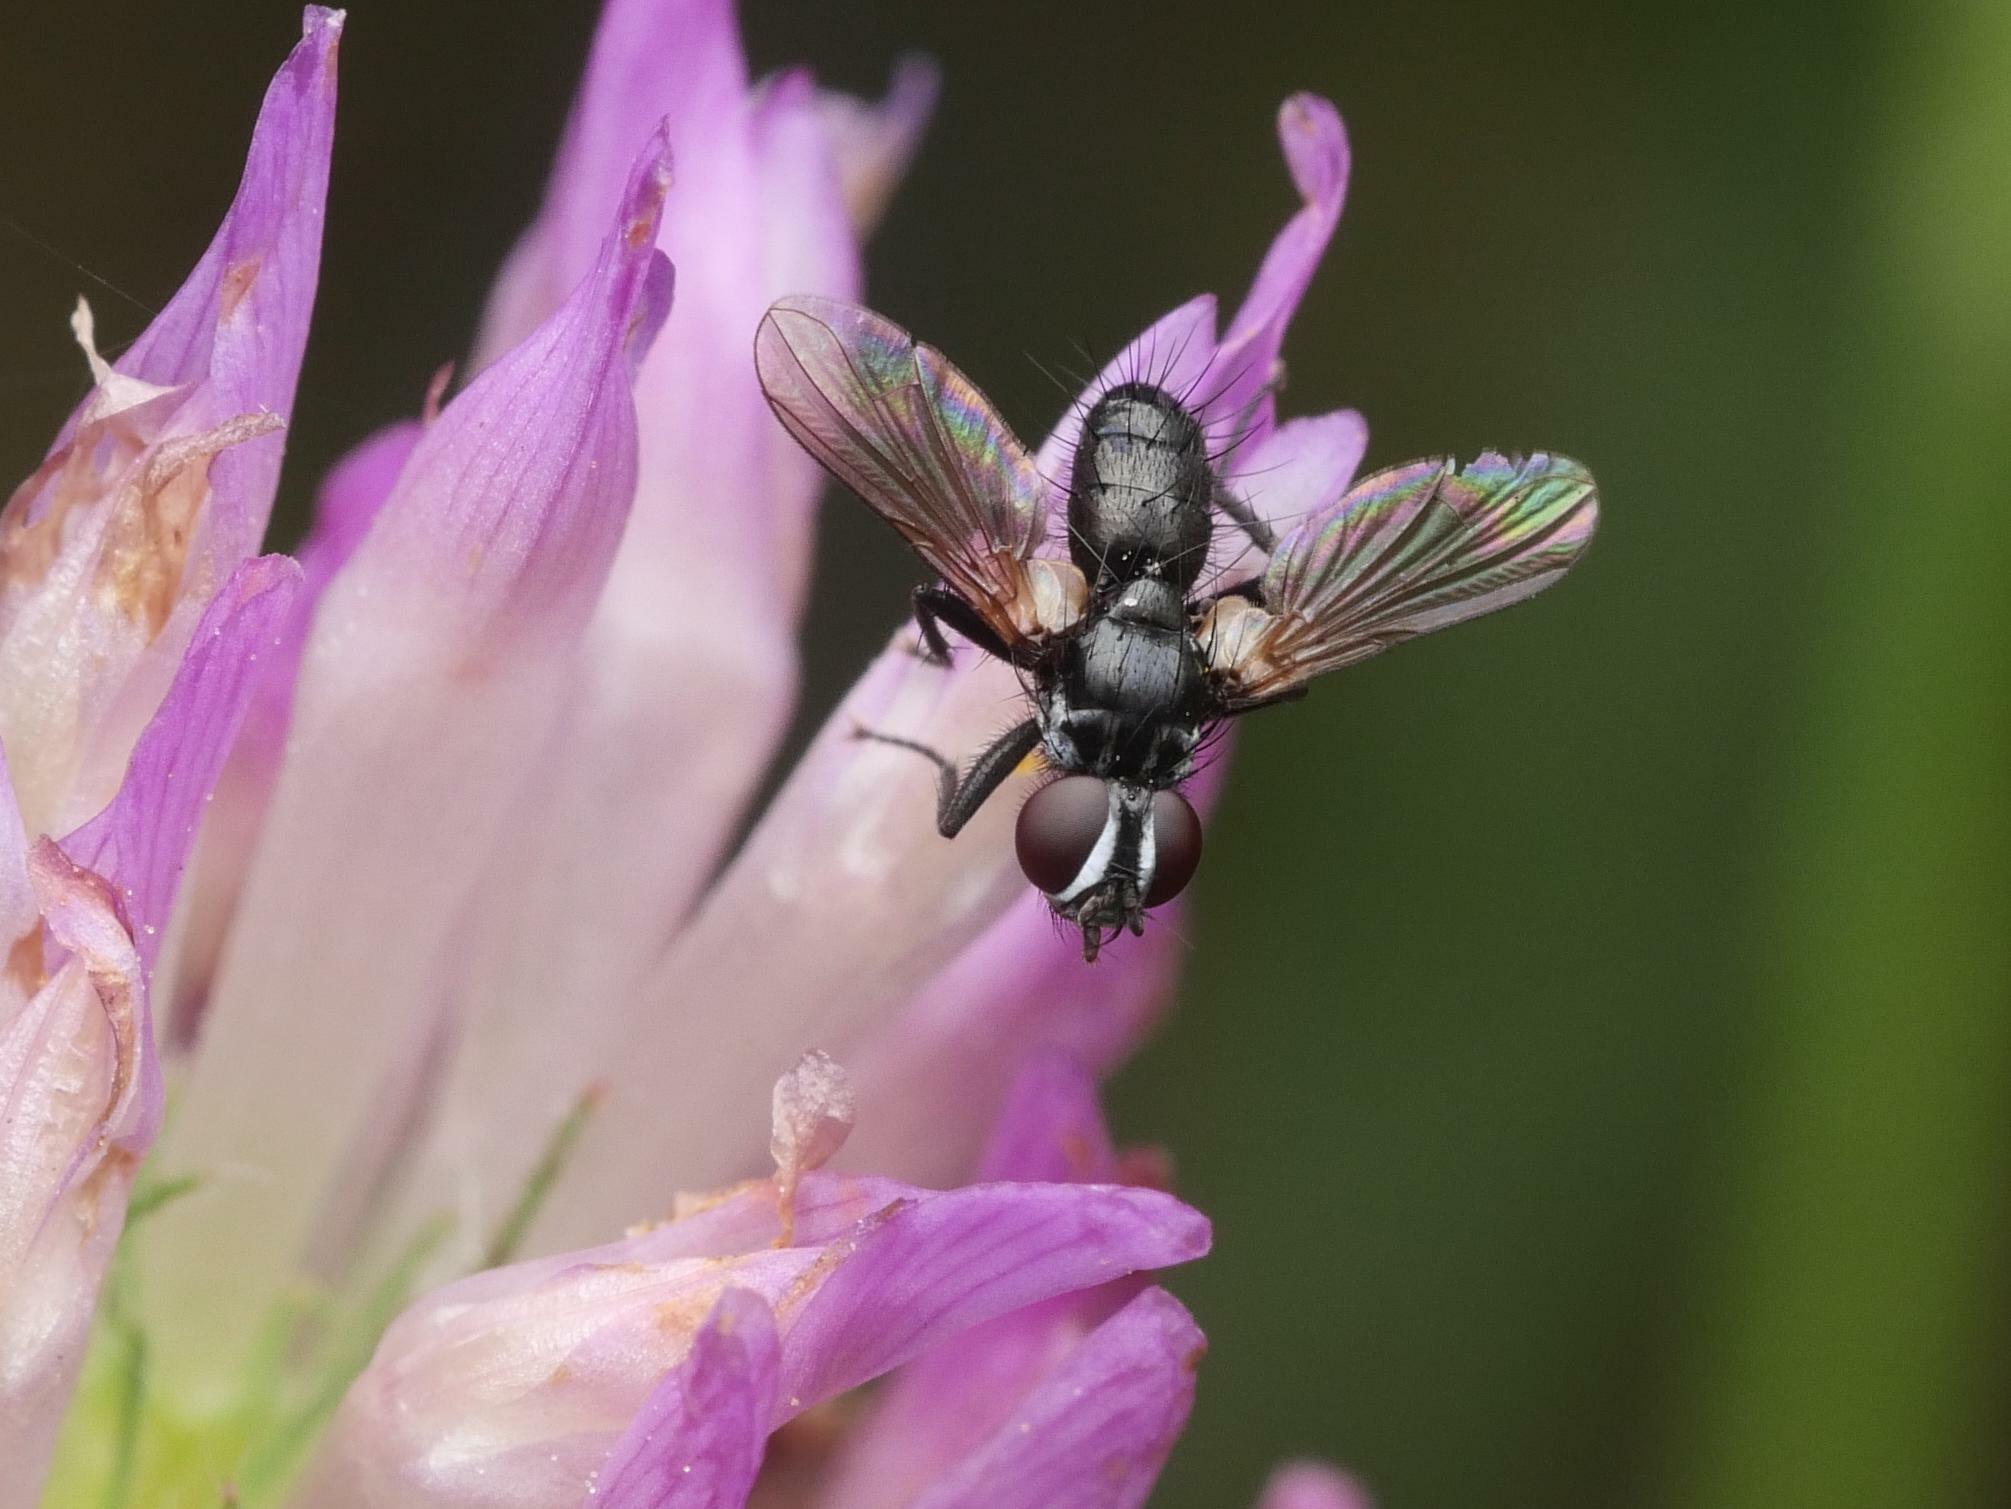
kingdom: Animalia
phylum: Arthropoda
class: Insecta
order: Diptera
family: Tachinidae
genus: Phania
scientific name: Phania funesta
